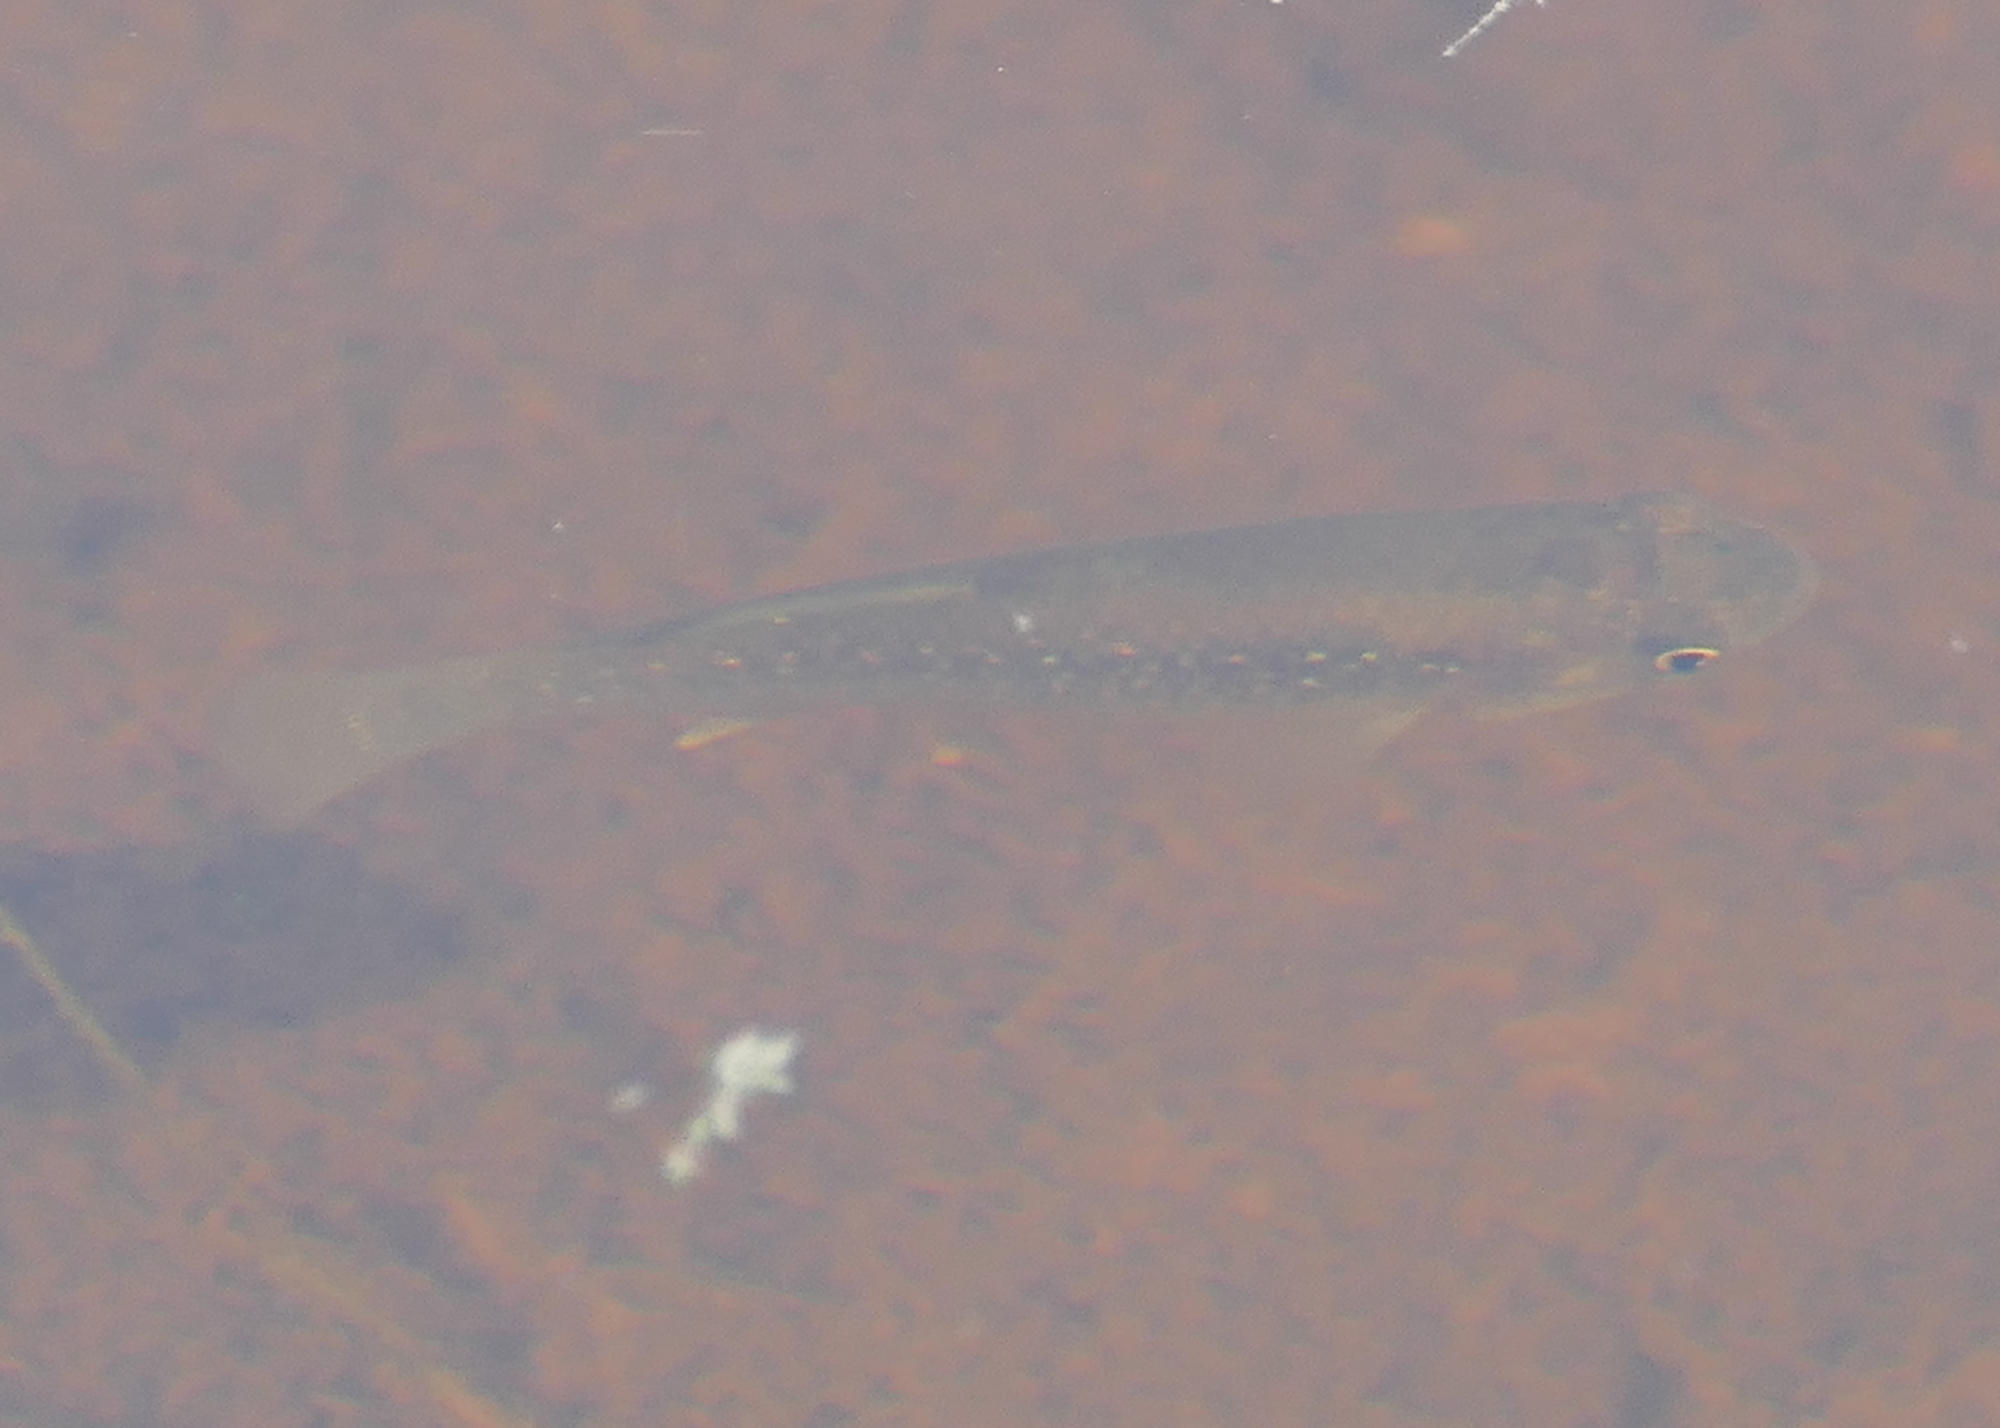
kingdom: Animalia
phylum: Chordata
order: Cyprinodontiformes
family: Fundulidae
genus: Fundulus
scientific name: Fundulus heteroclitus
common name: Mummichog
